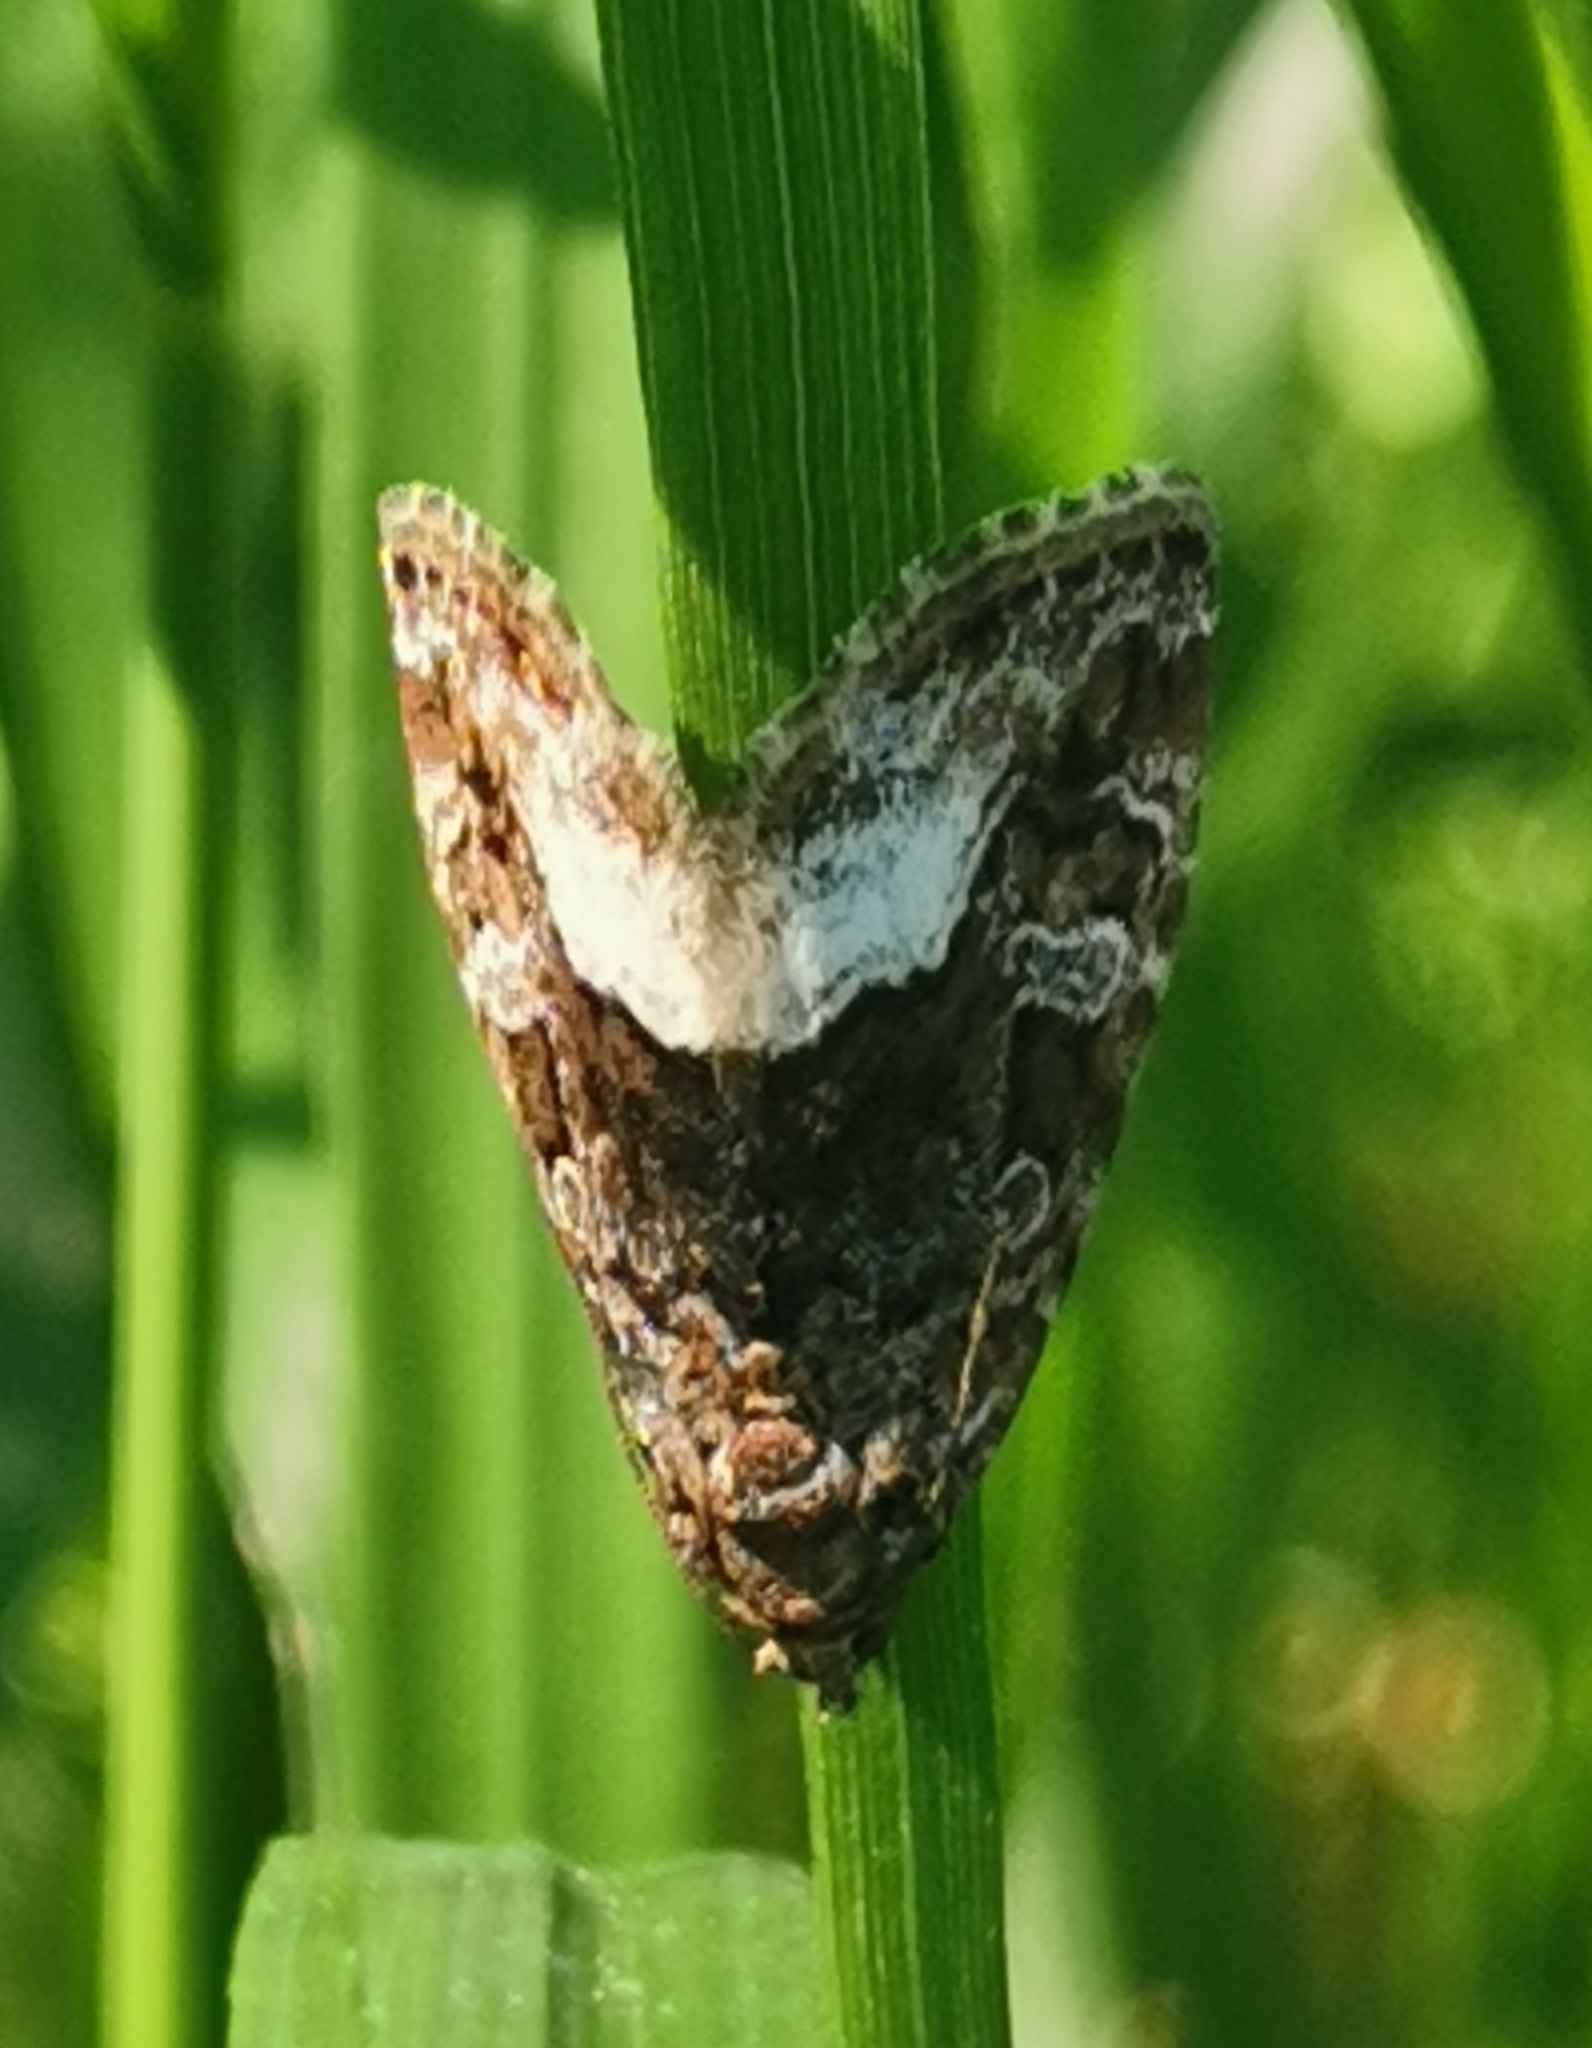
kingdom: Animalia
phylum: Arthropoda
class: Insecta
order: Lepidoptera
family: Noctuidae
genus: Deltote
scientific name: Deltote pygarga
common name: Marbled white spot
